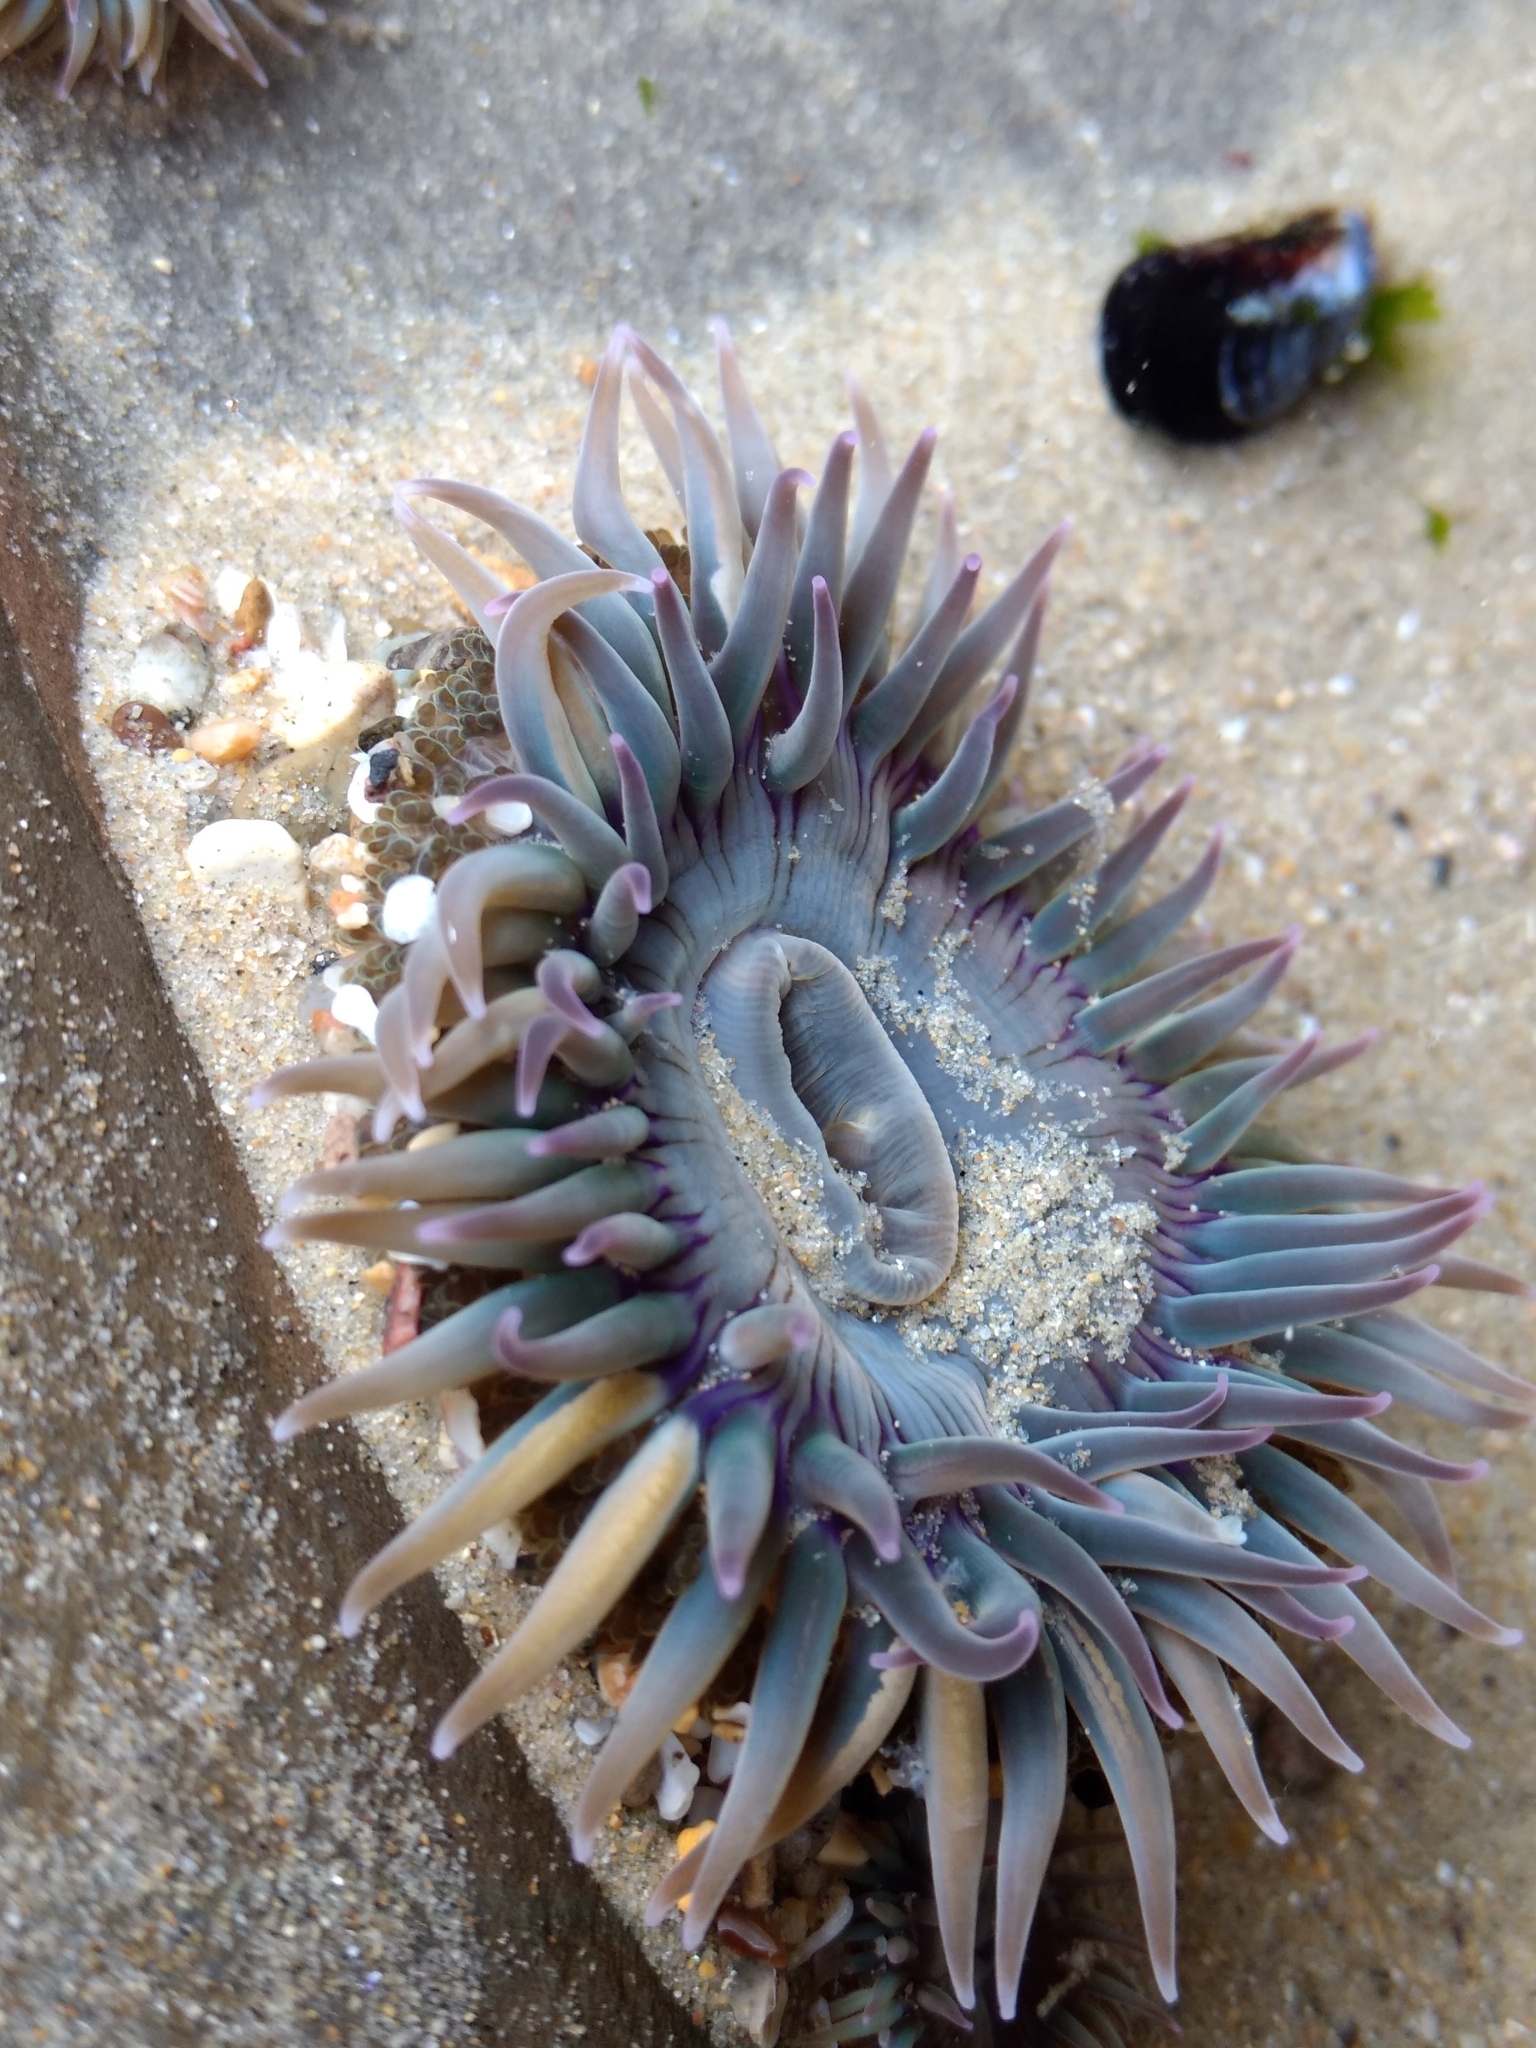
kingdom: Animalia
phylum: Cnidaria
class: Anthozoa
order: Actiniaria
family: Actiniidae
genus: Anthopleura
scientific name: Anthopleura elegantissima
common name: Clonal anemone
